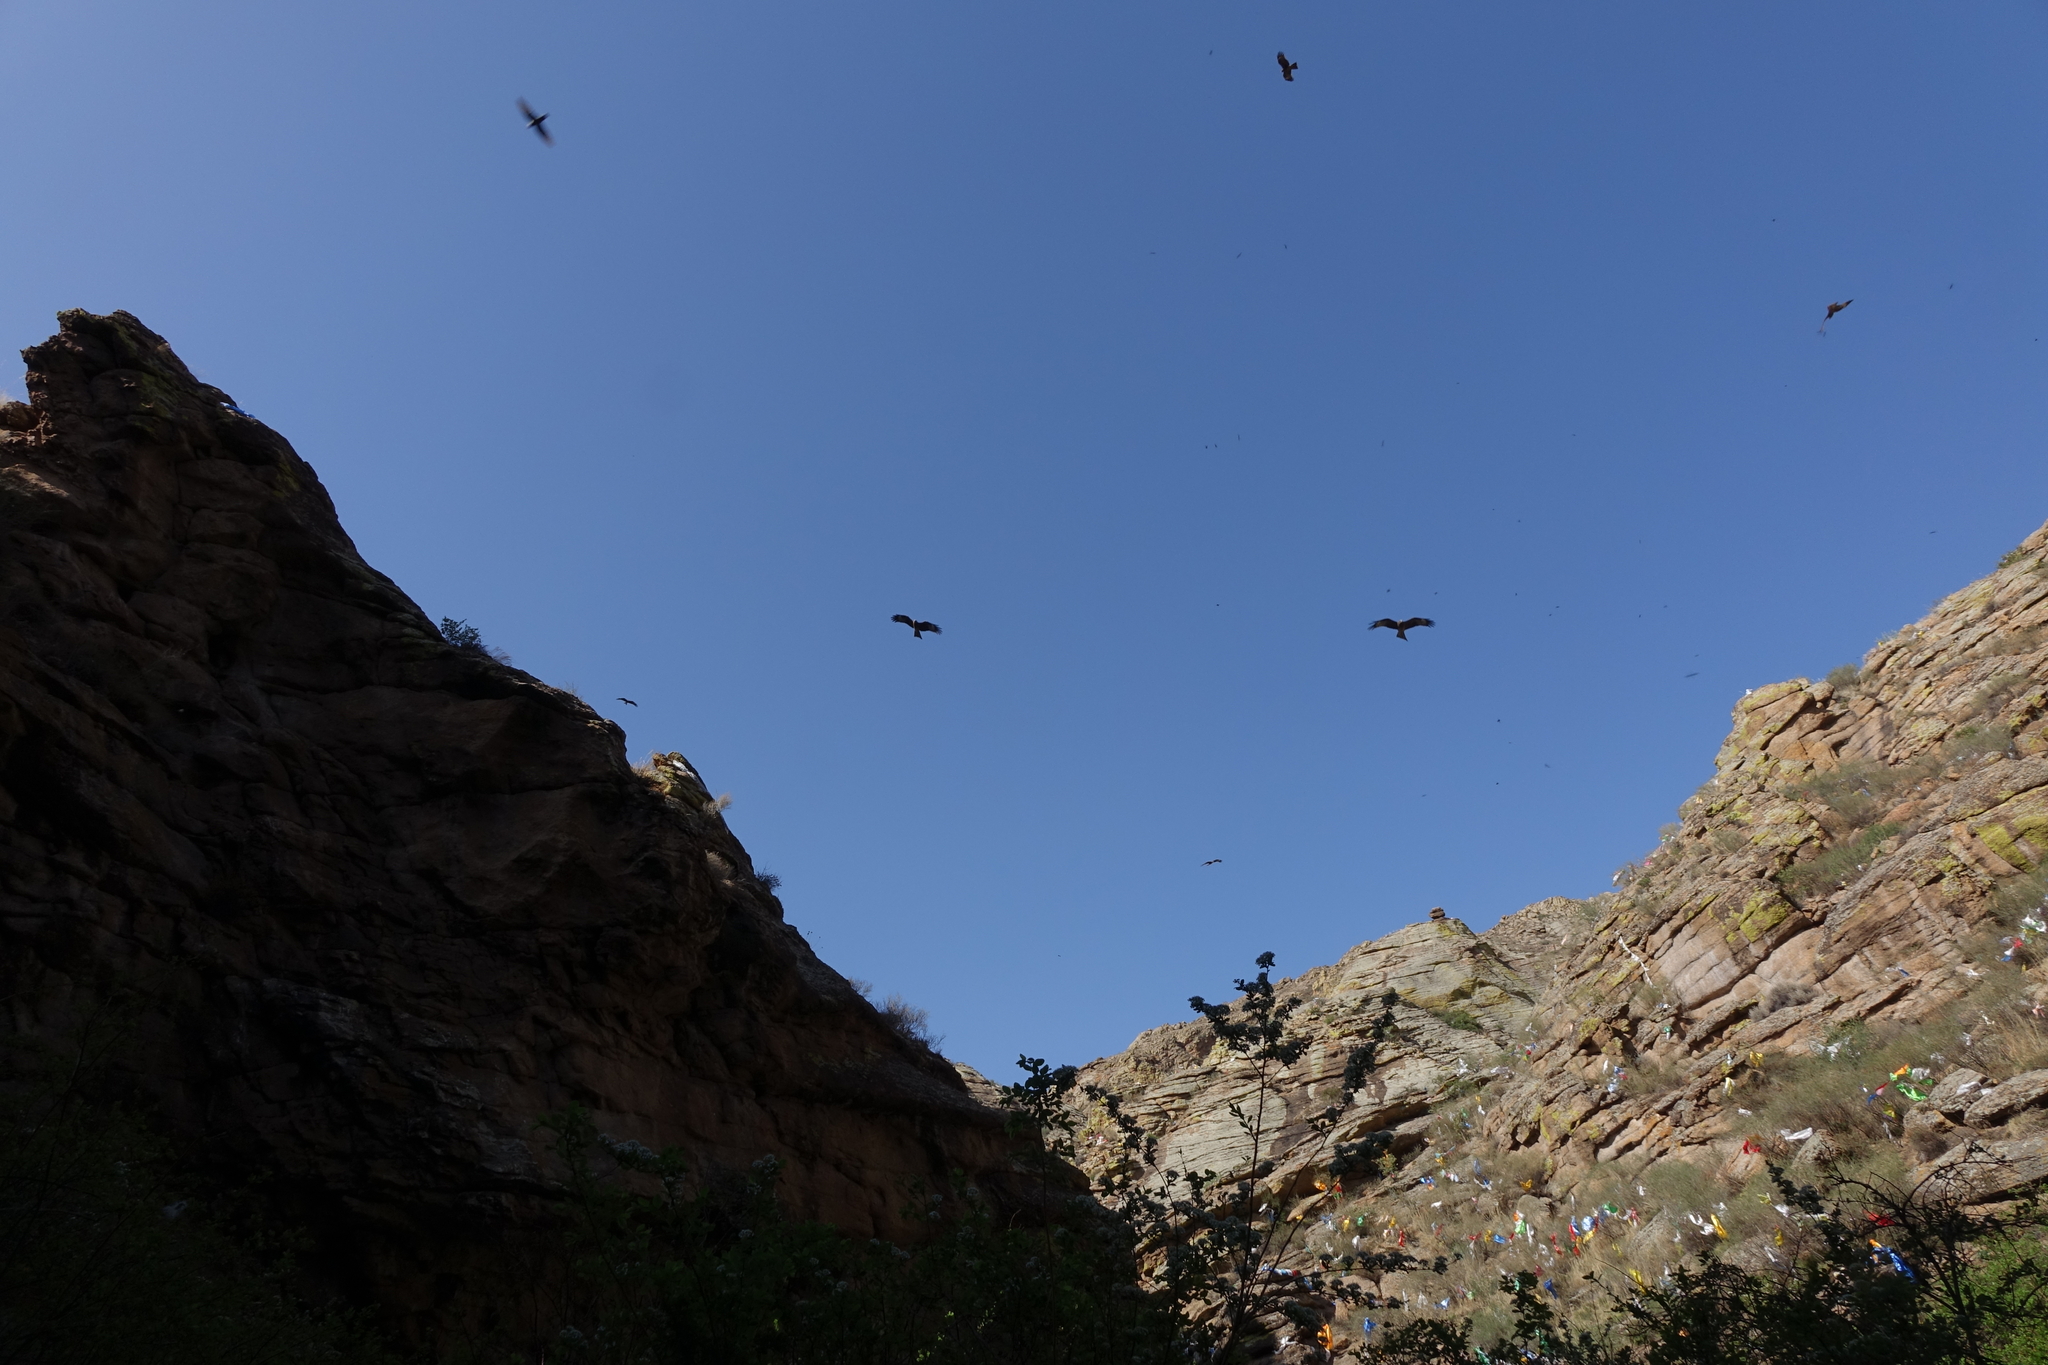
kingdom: Animalia
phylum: Chordata
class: Aves
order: Accipitriformes
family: Accipitridae
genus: Milvus
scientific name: Milvus migrans
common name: Black kite
